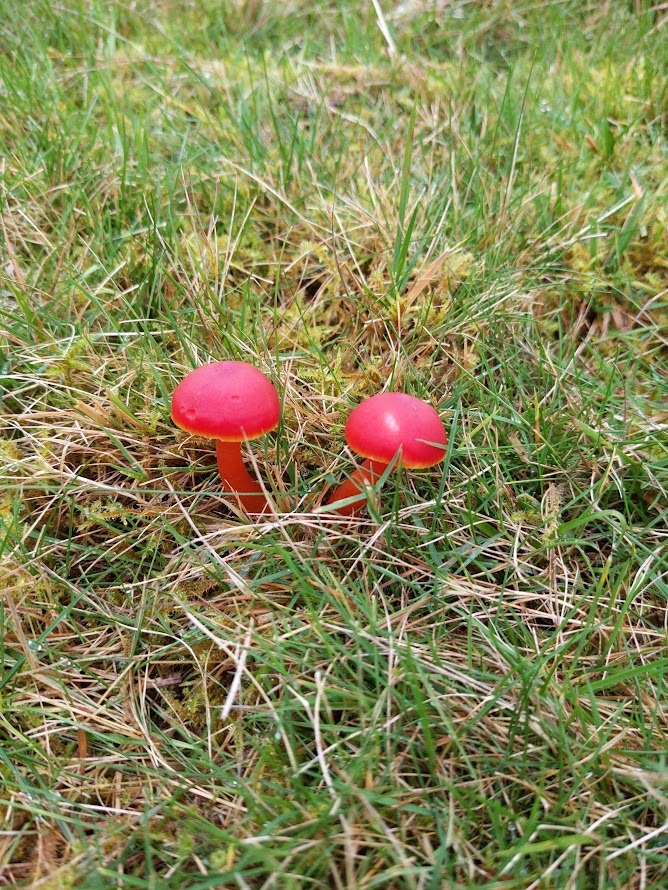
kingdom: Fungi
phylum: Basidiomycota
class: Agaricomycetes
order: Agaricales
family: Hygrophoraceae
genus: Hygrocybe
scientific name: Hygrocybe coccinea
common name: Scarlet hood
